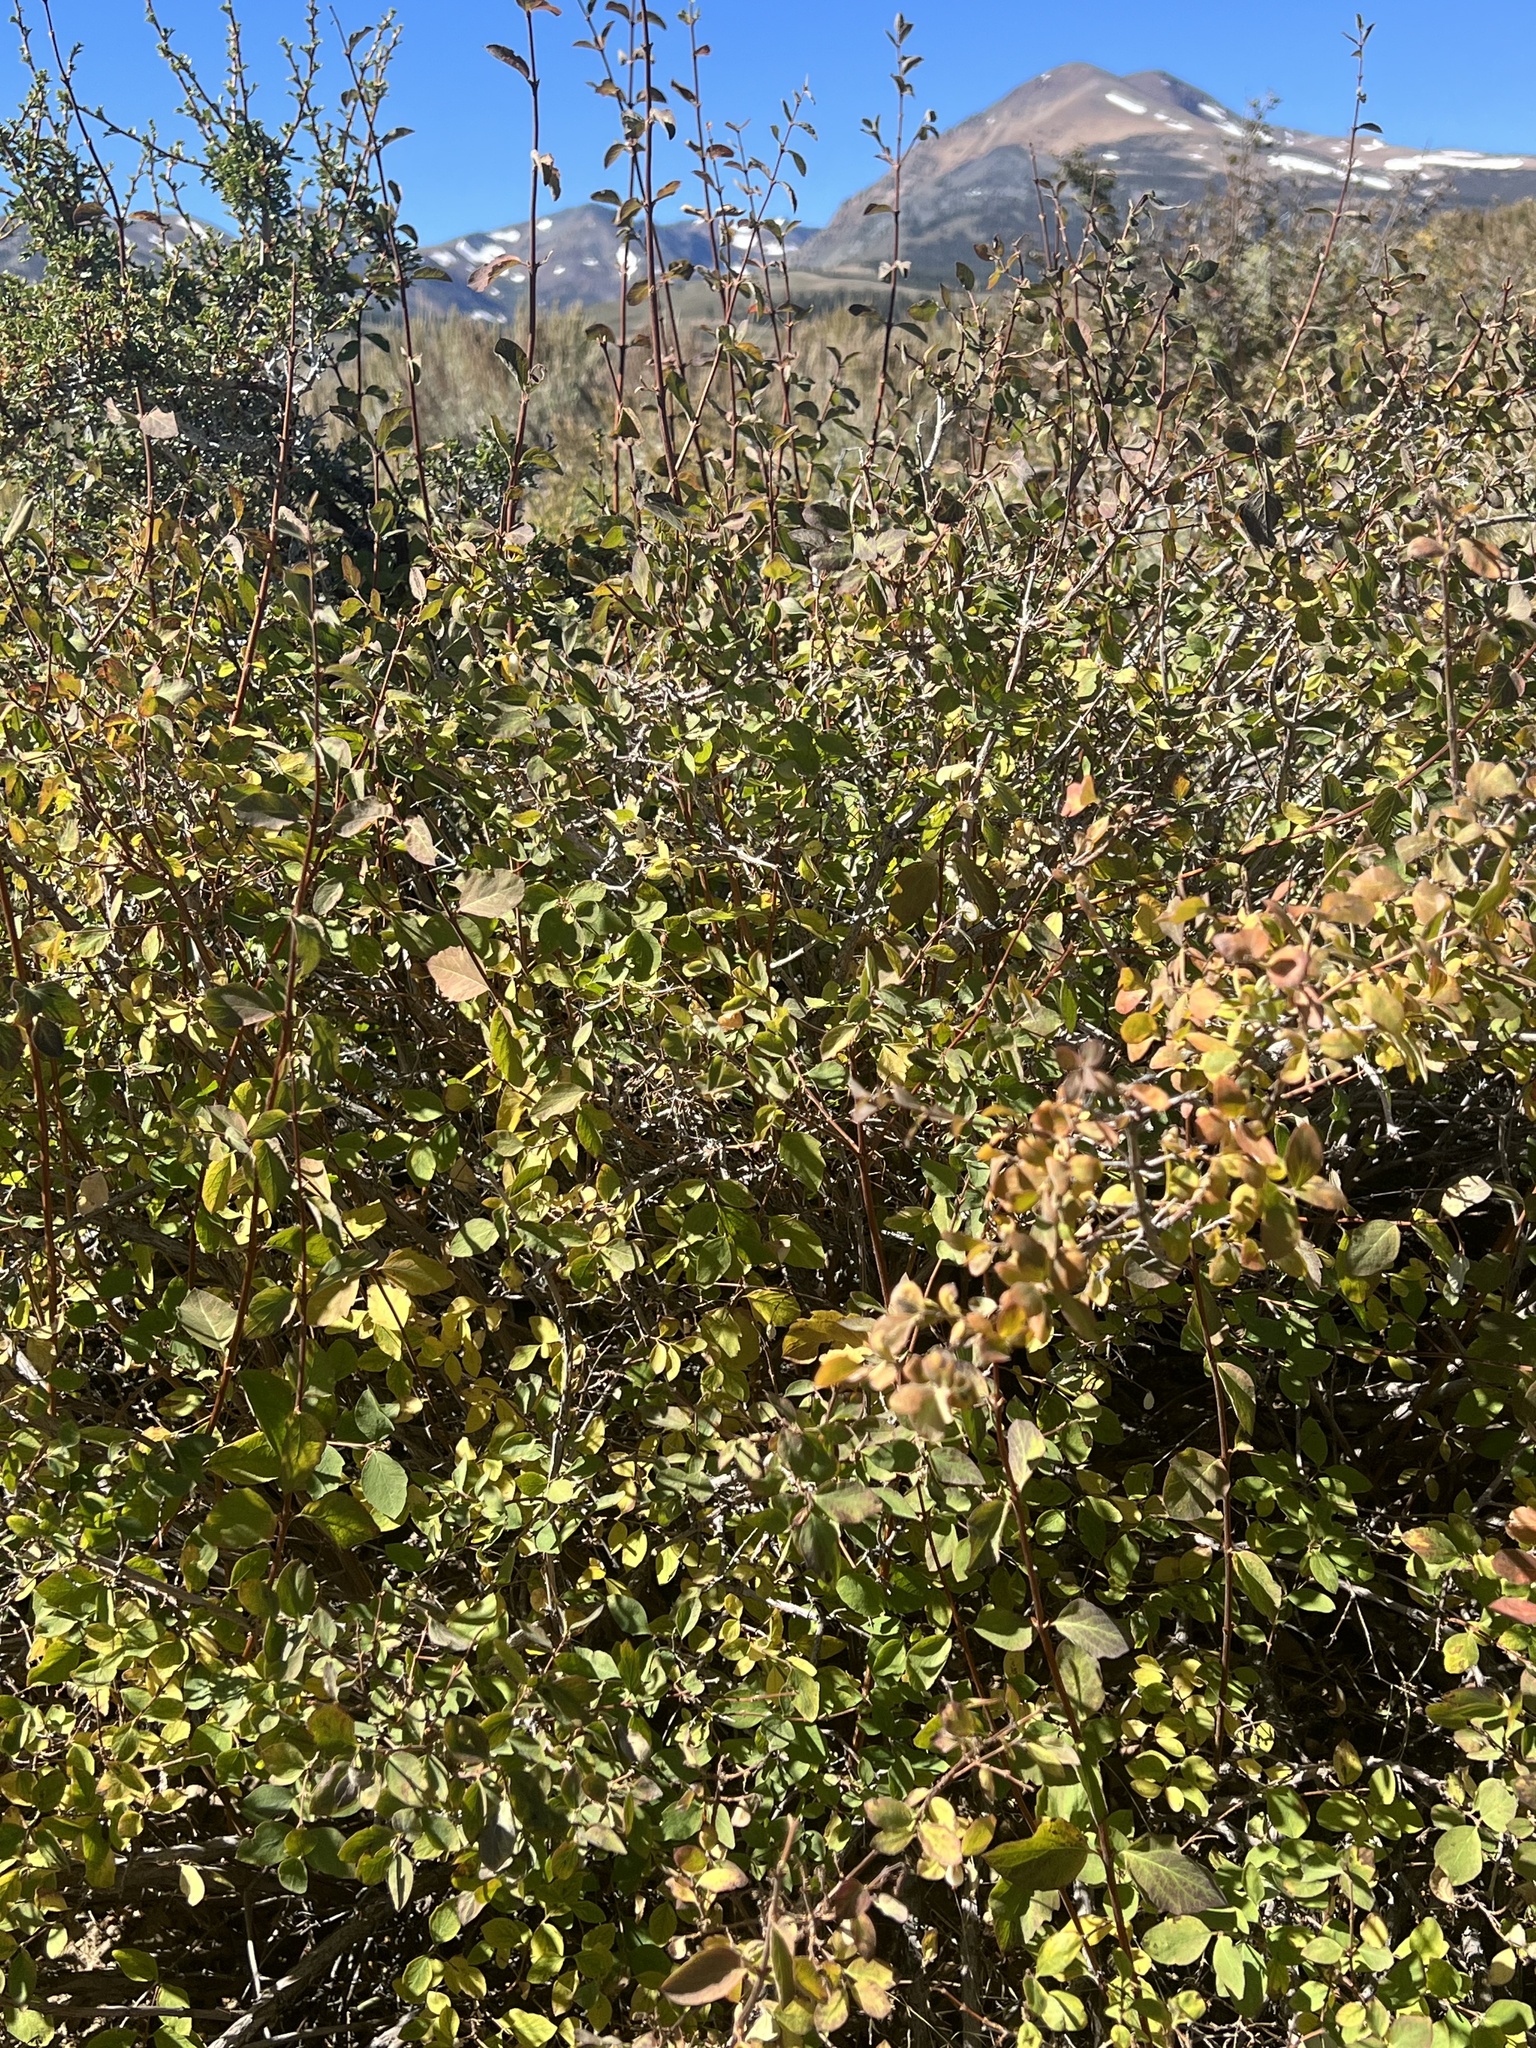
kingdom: Plantae
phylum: Tracheophyta
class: Magnoliopsida
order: Dipsacales
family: Caprifoliaceae
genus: Symphoricarpos
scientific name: Symphoricarpos rotundifolius
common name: Round-leaved snowberry
